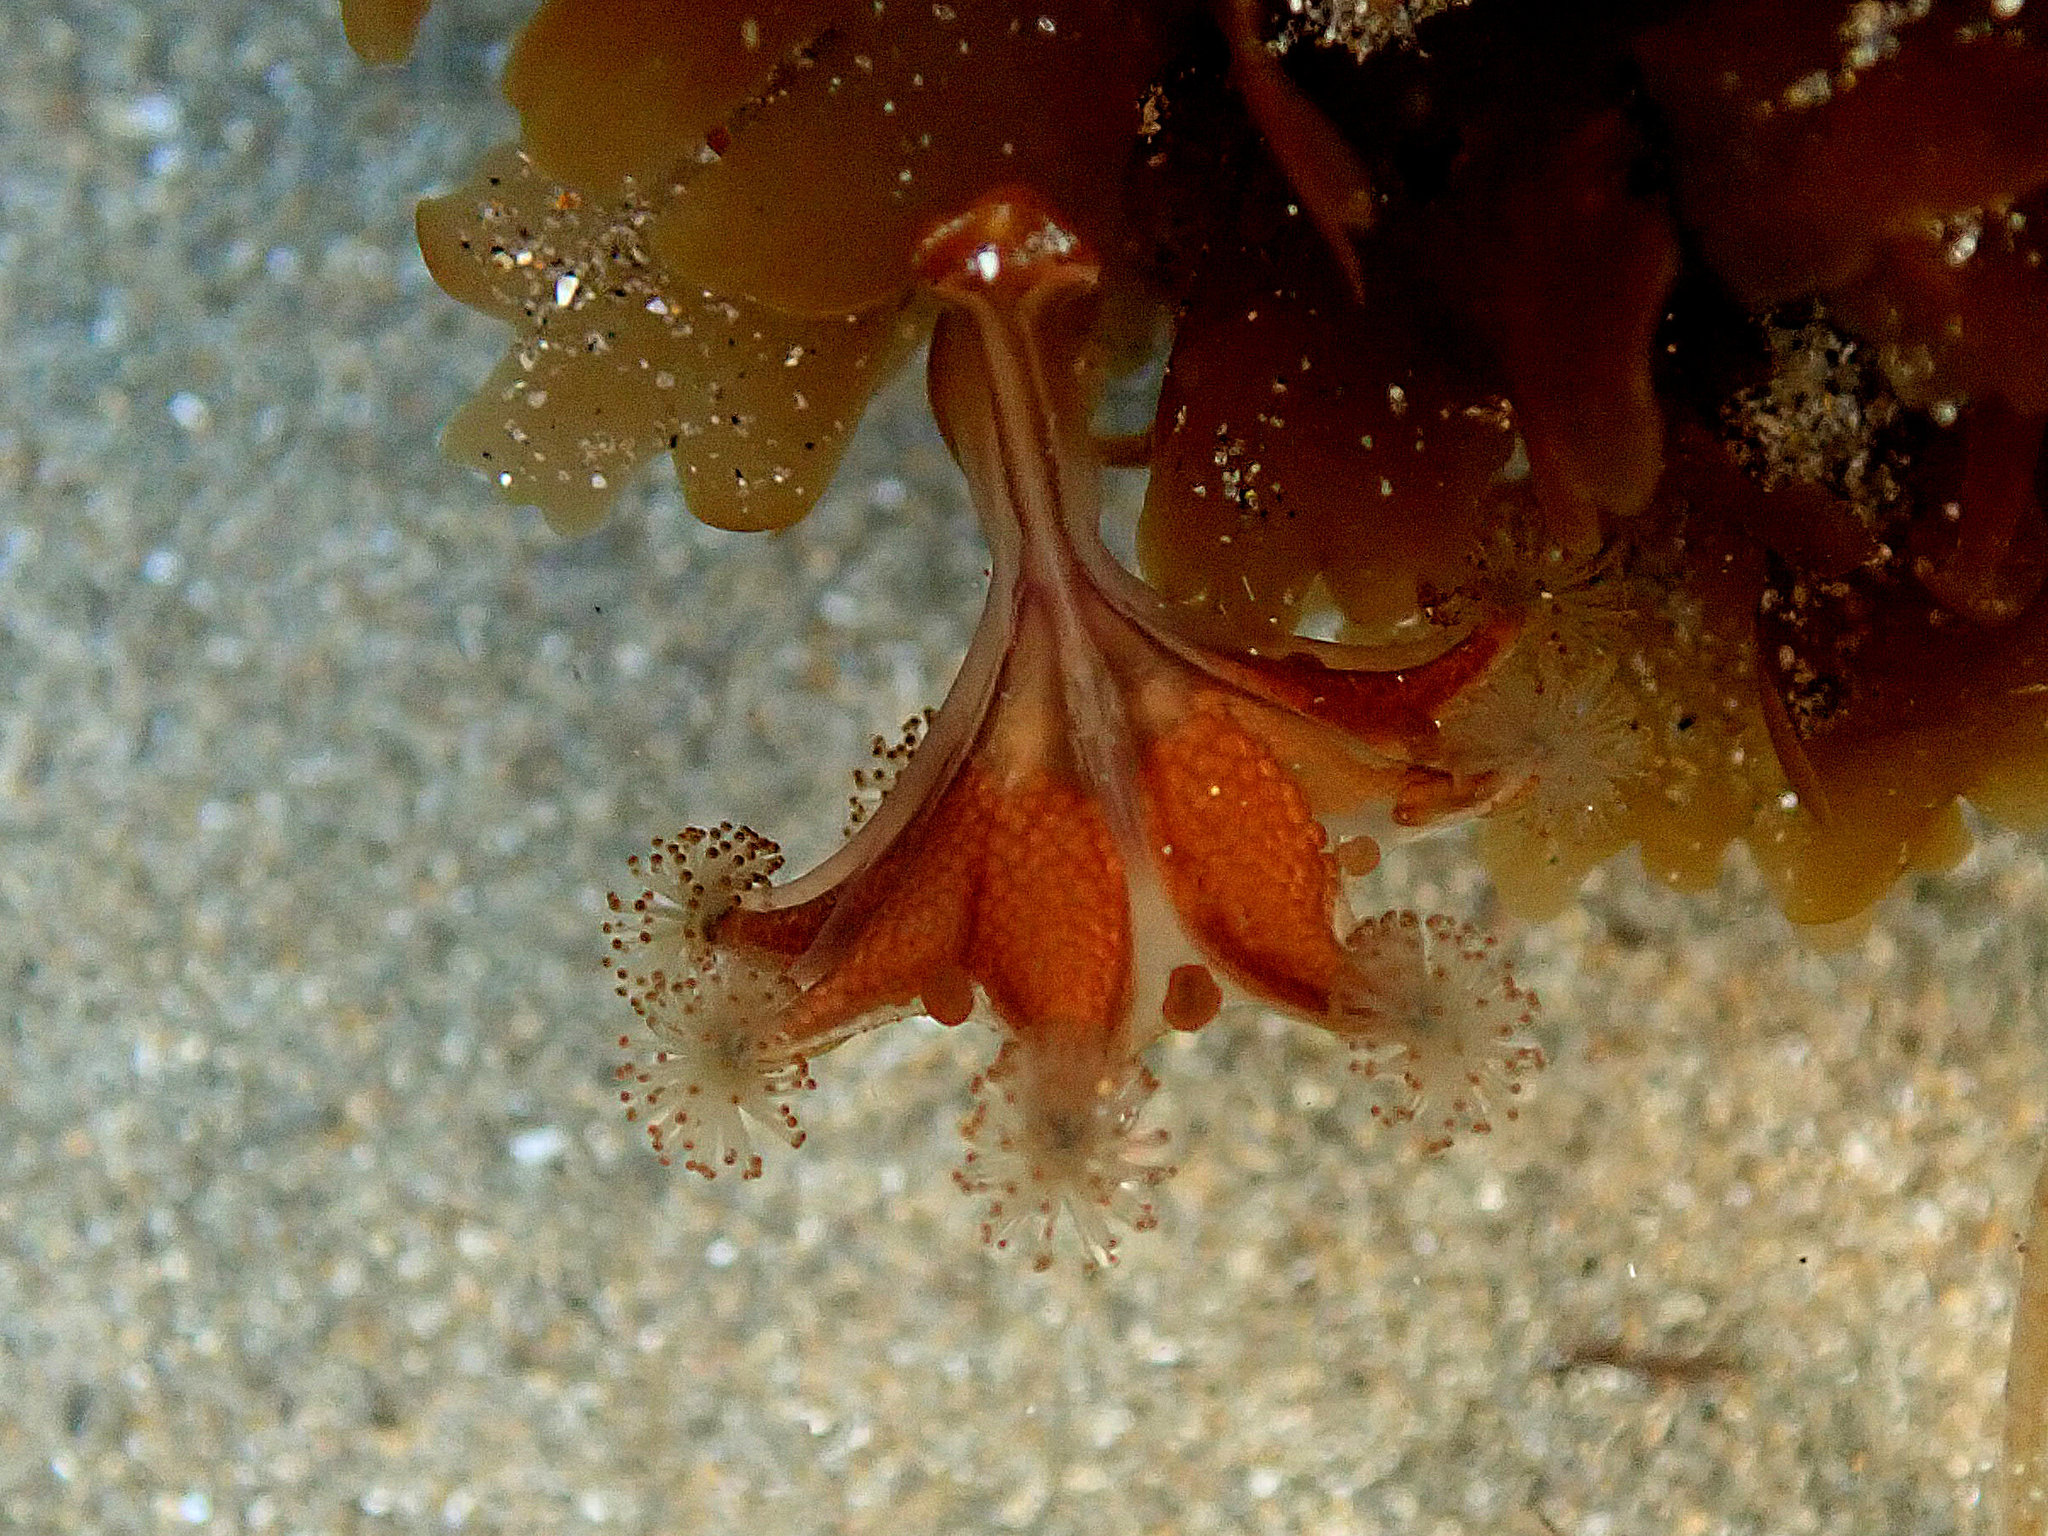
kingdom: Animalia
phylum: Cnidaria
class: Staurozoa
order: Stauromedusae
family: Haliclystidae
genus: Haliclystus
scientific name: Haliclystus sanjuanensis
